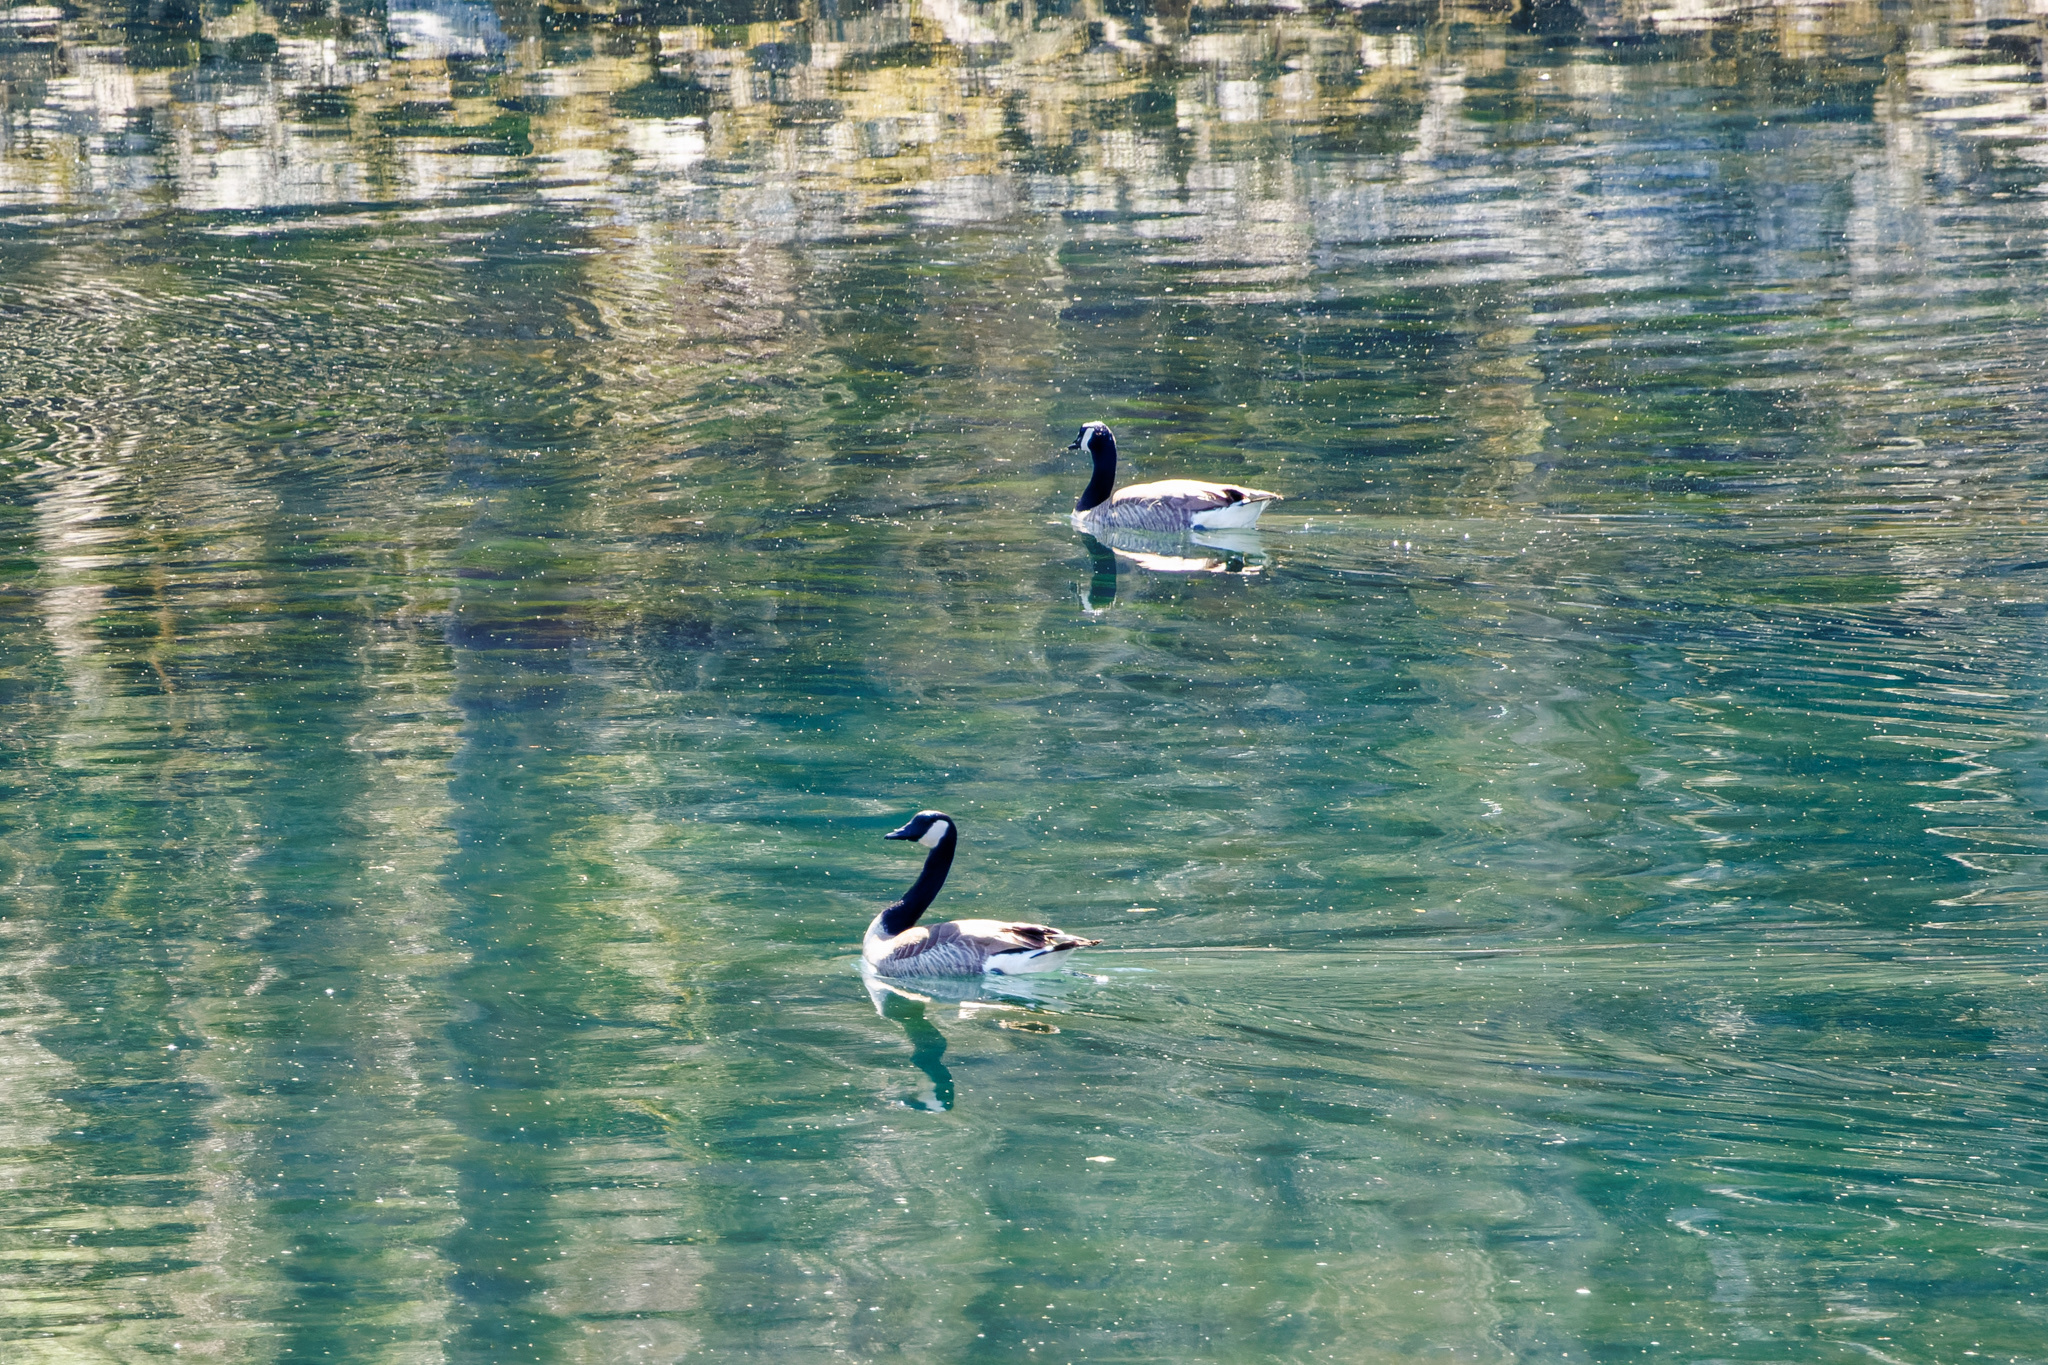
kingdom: Animalia
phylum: Chordata
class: Aves
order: Anseriformes
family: Anatidae
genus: Branta
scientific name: Branta canadensis
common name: Canada goose
